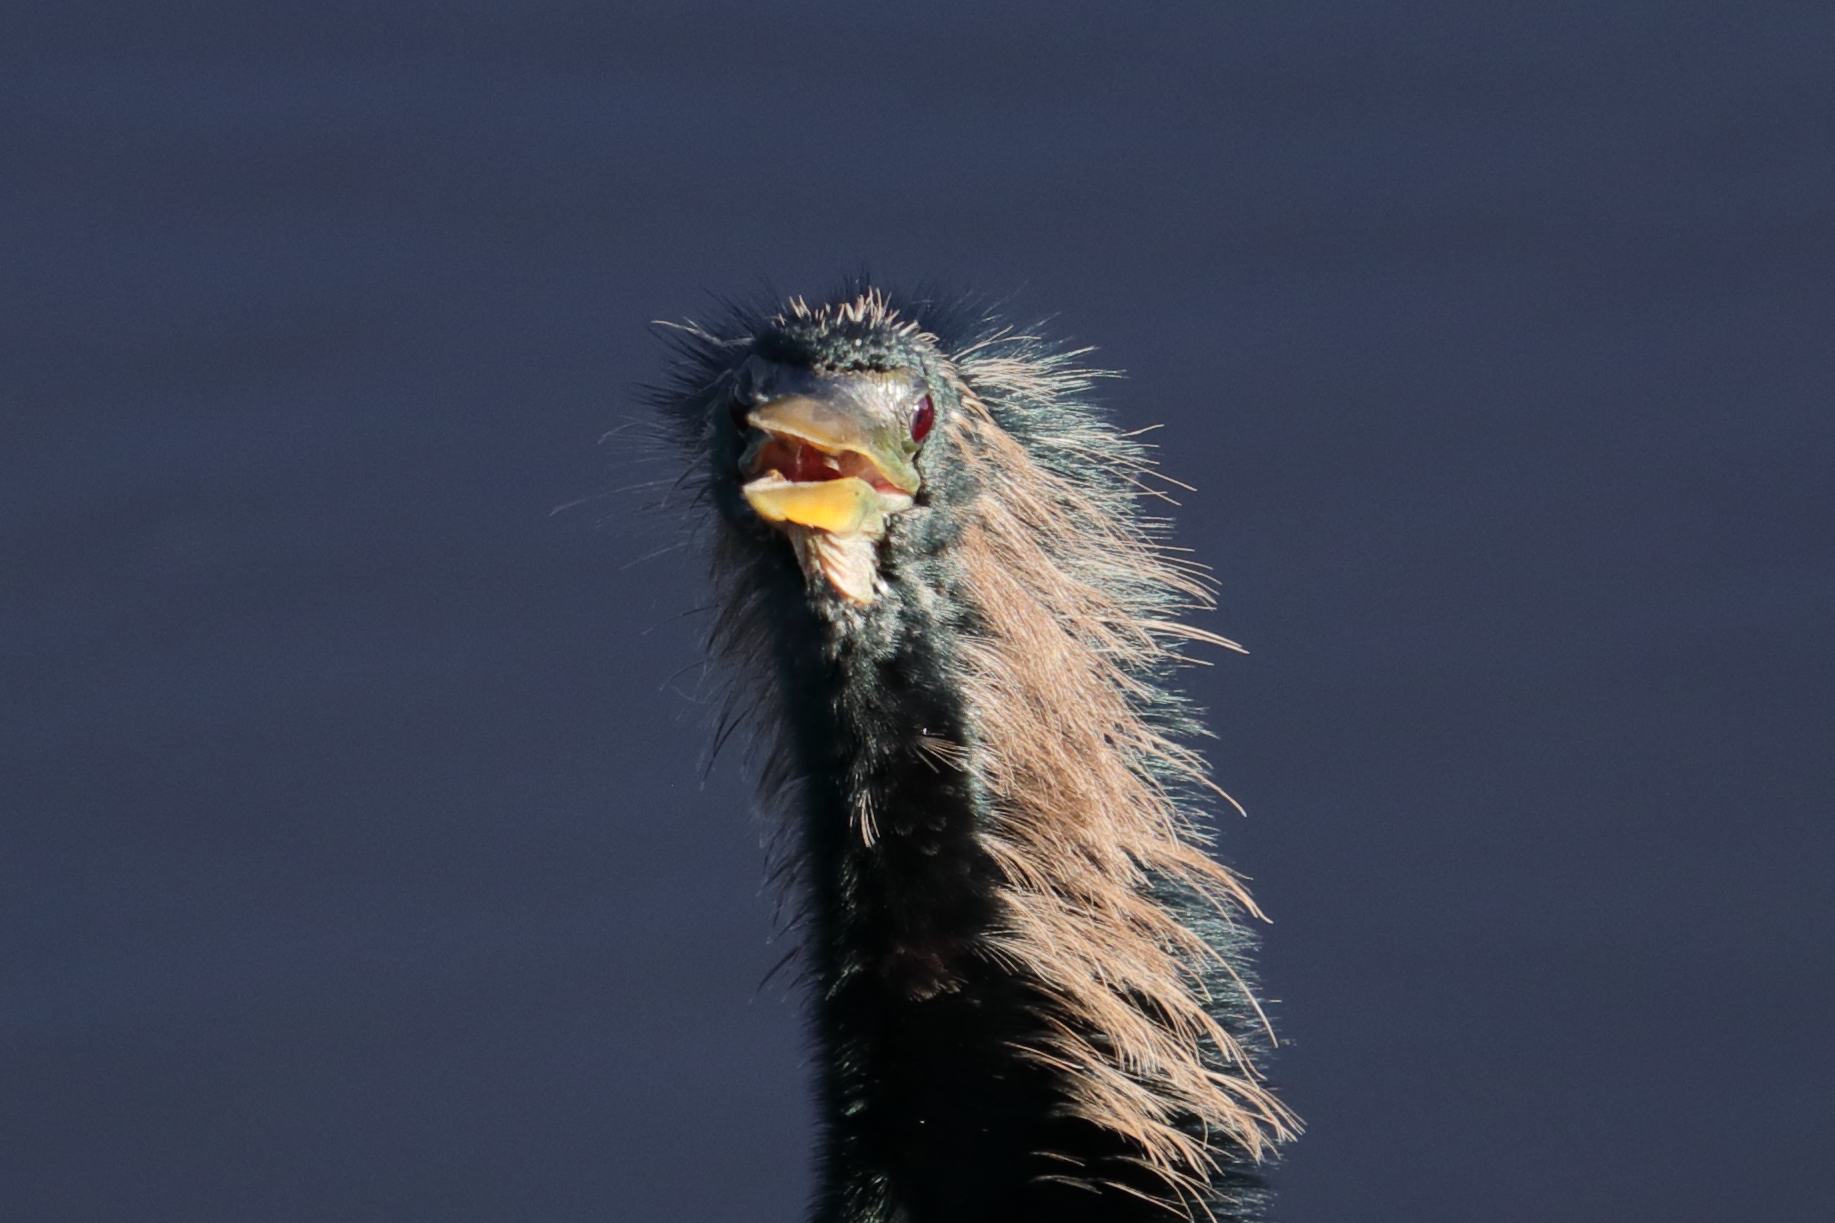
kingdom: Animalia
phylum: Chordata
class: Aves
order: Suliformes
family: Anhingidae
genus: Anhinga
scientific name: Anhinga anhinga
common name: Anhinga
